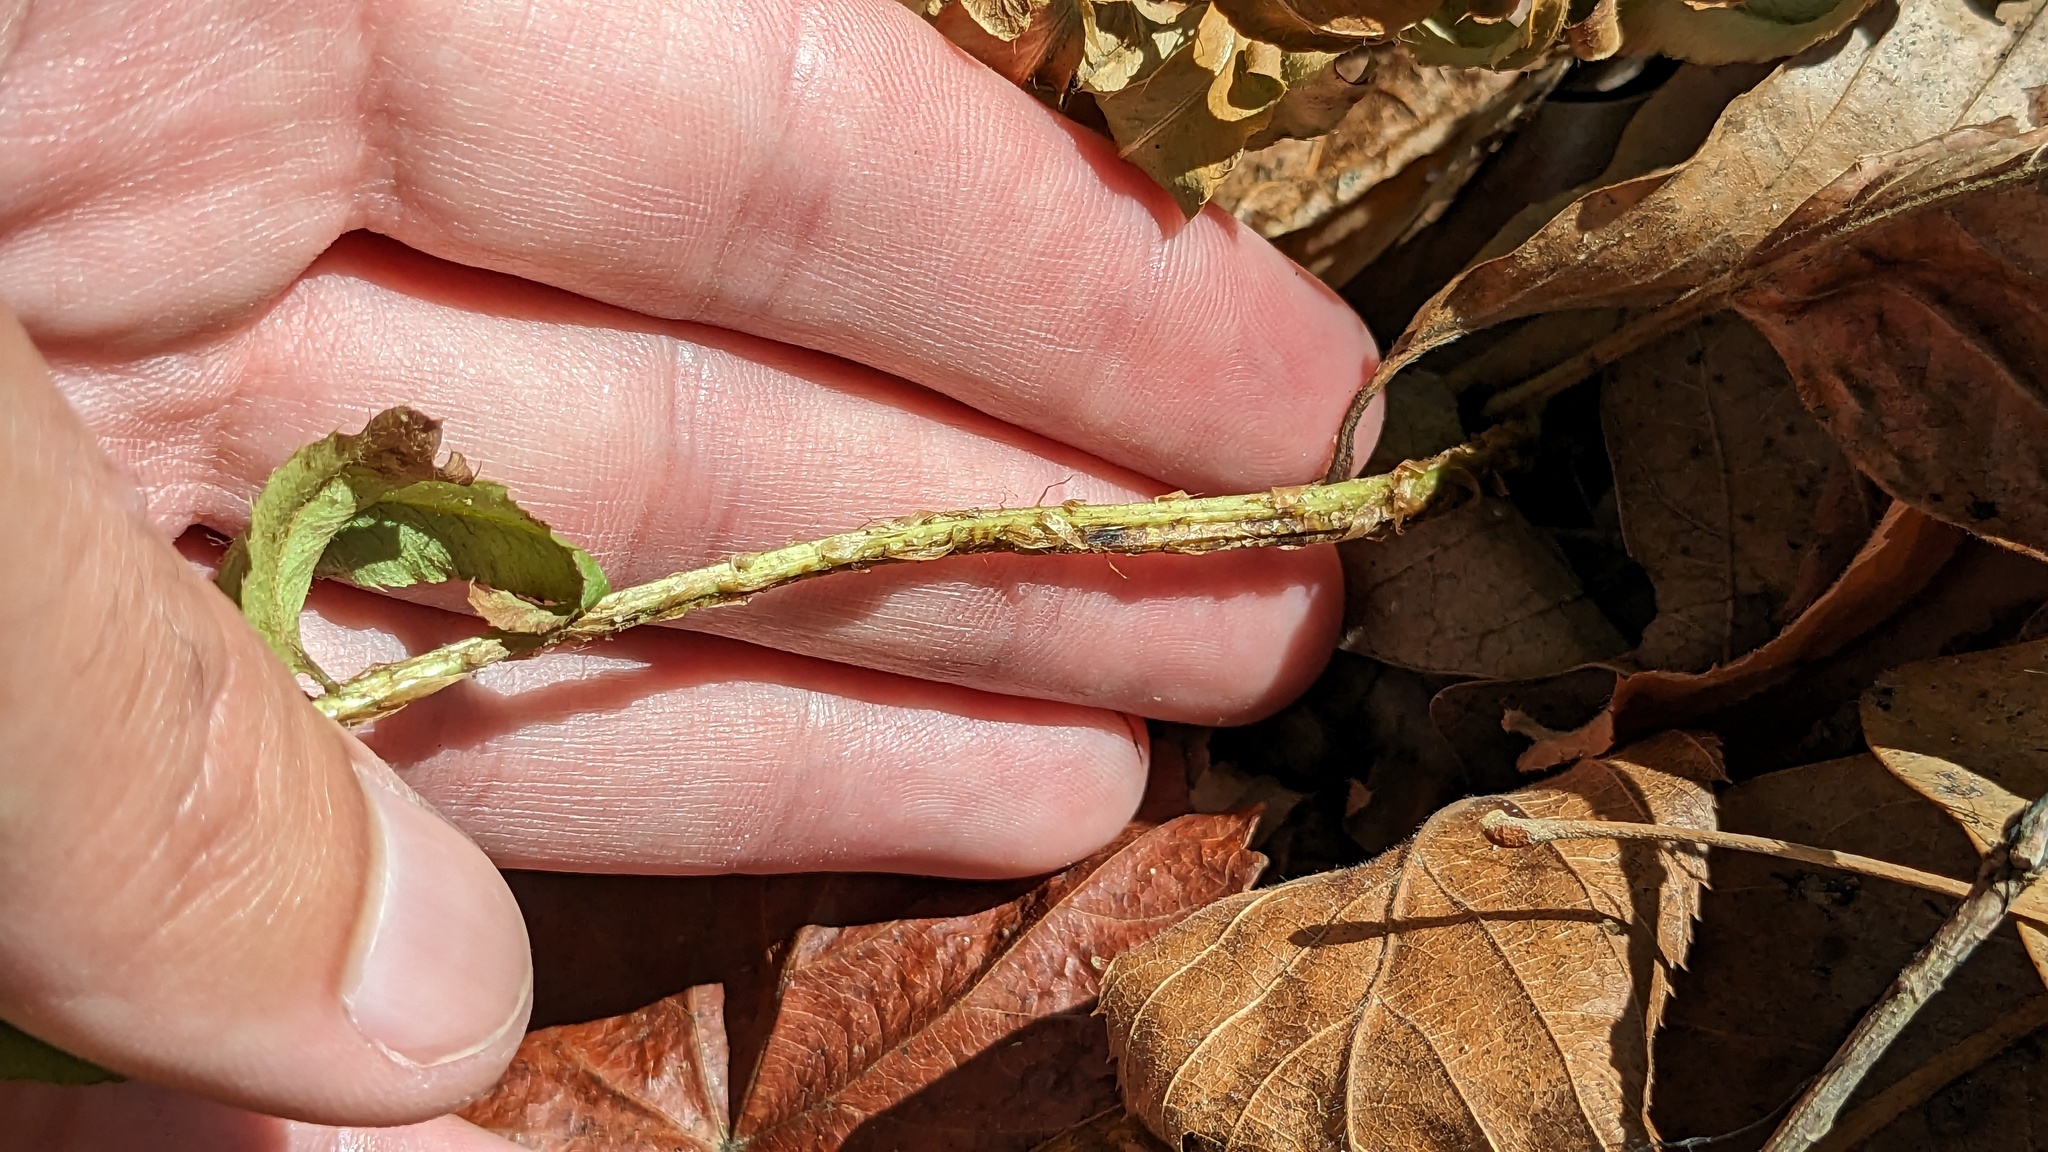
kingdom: Plantae
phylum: Tracheophyta
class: Polypodiopsida
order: Polypodiales
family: Dryopteridaceae
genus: Polystichum
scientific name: Polystichum acrostichoides
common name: Christmas fern
